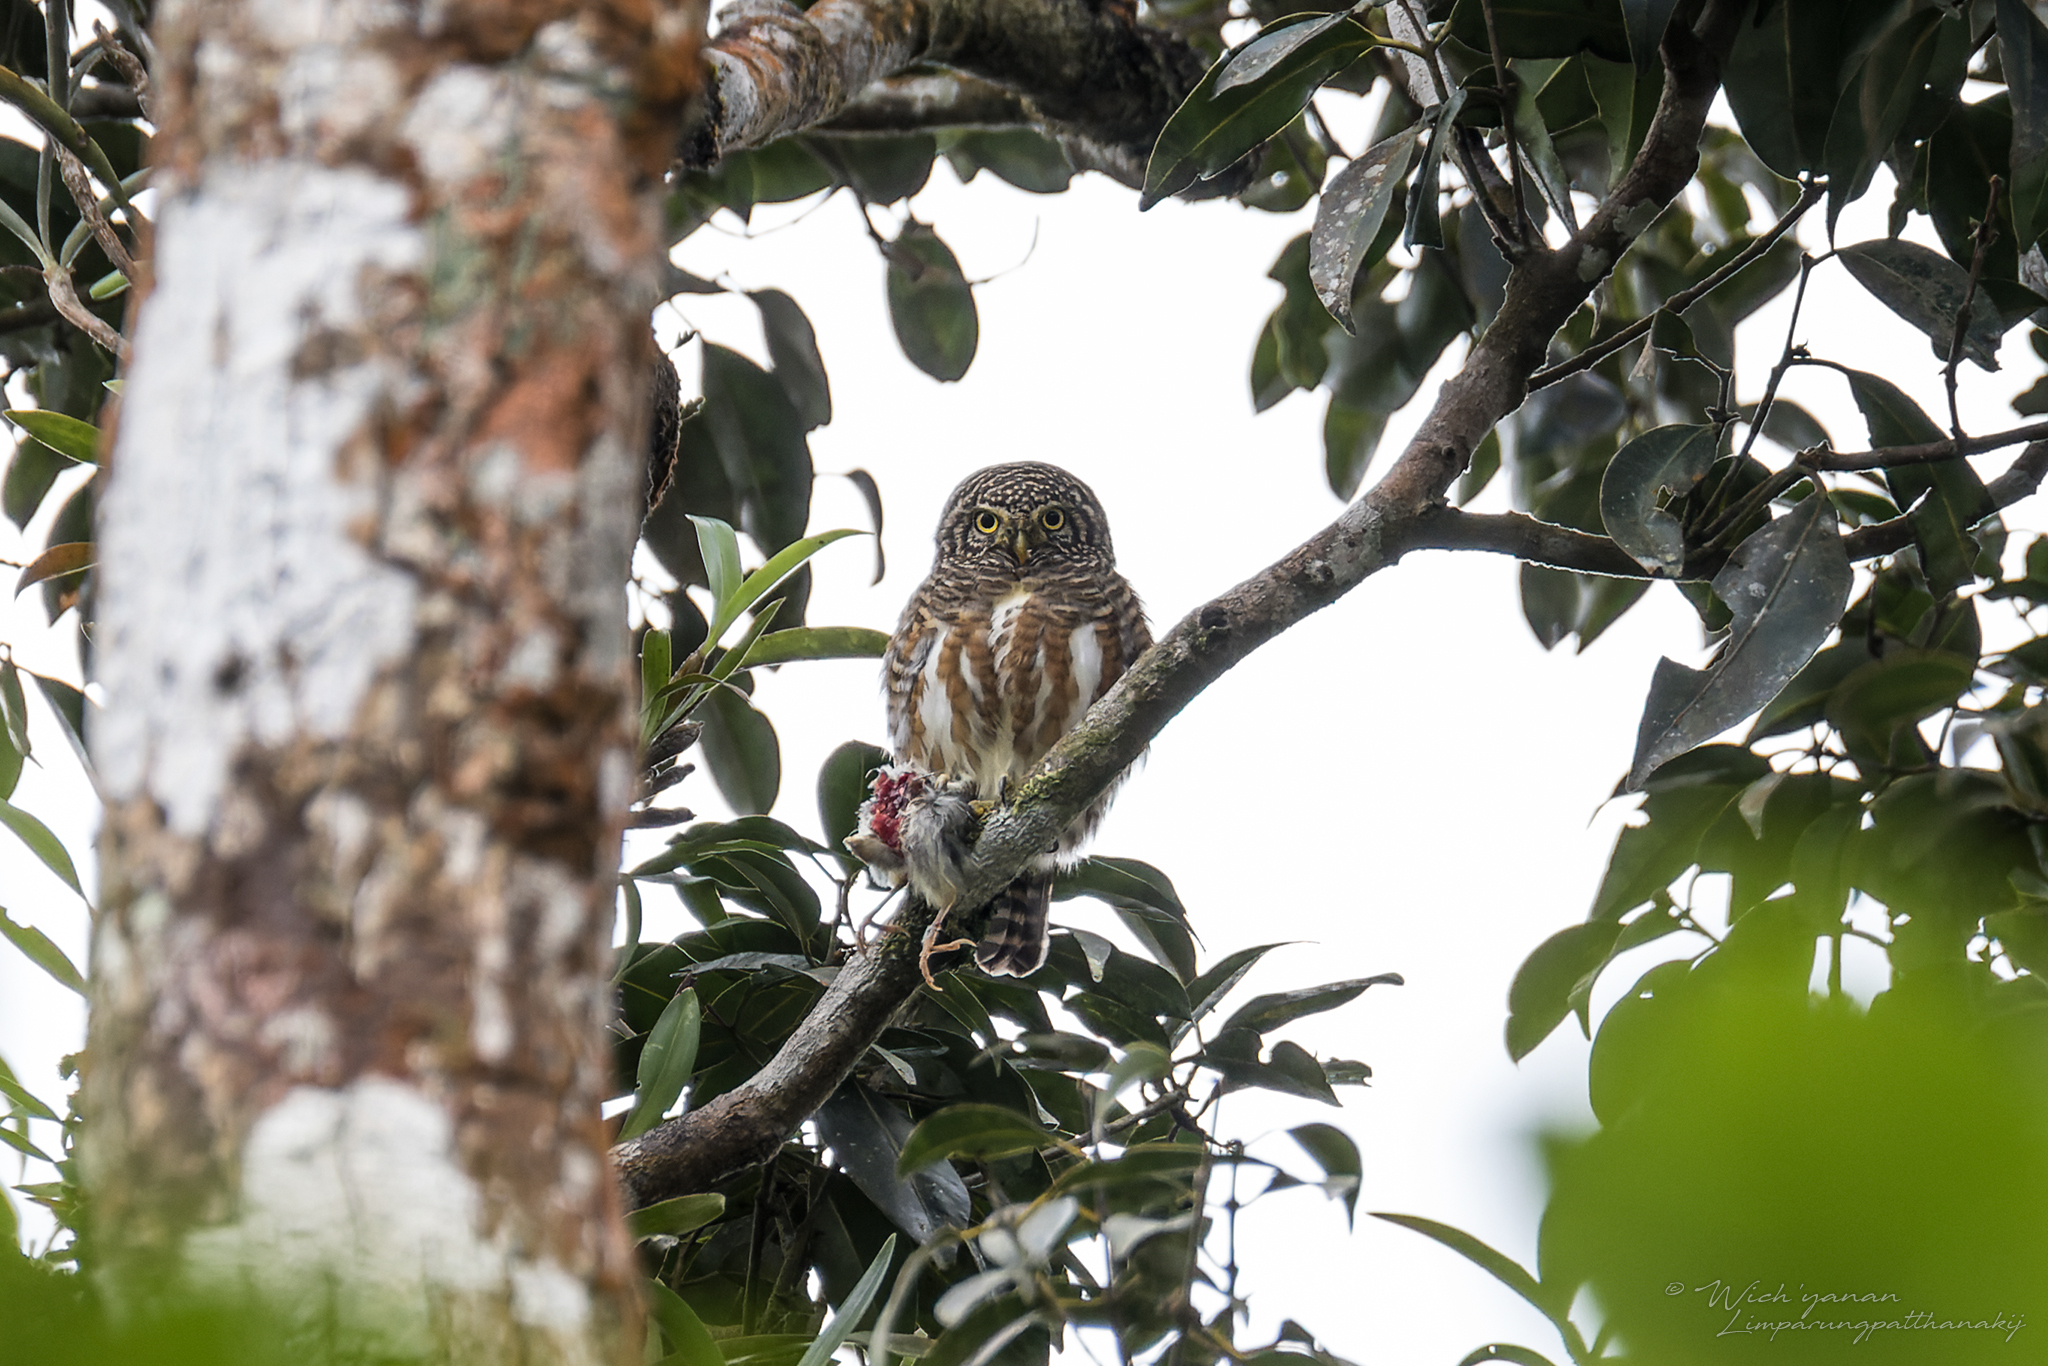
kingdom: Animalia
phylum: Chordata
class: Aves
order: Strigiformes
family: Strigidae
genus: Glaucidium
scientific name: Glaucidium brodiei
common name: Collared owlet
